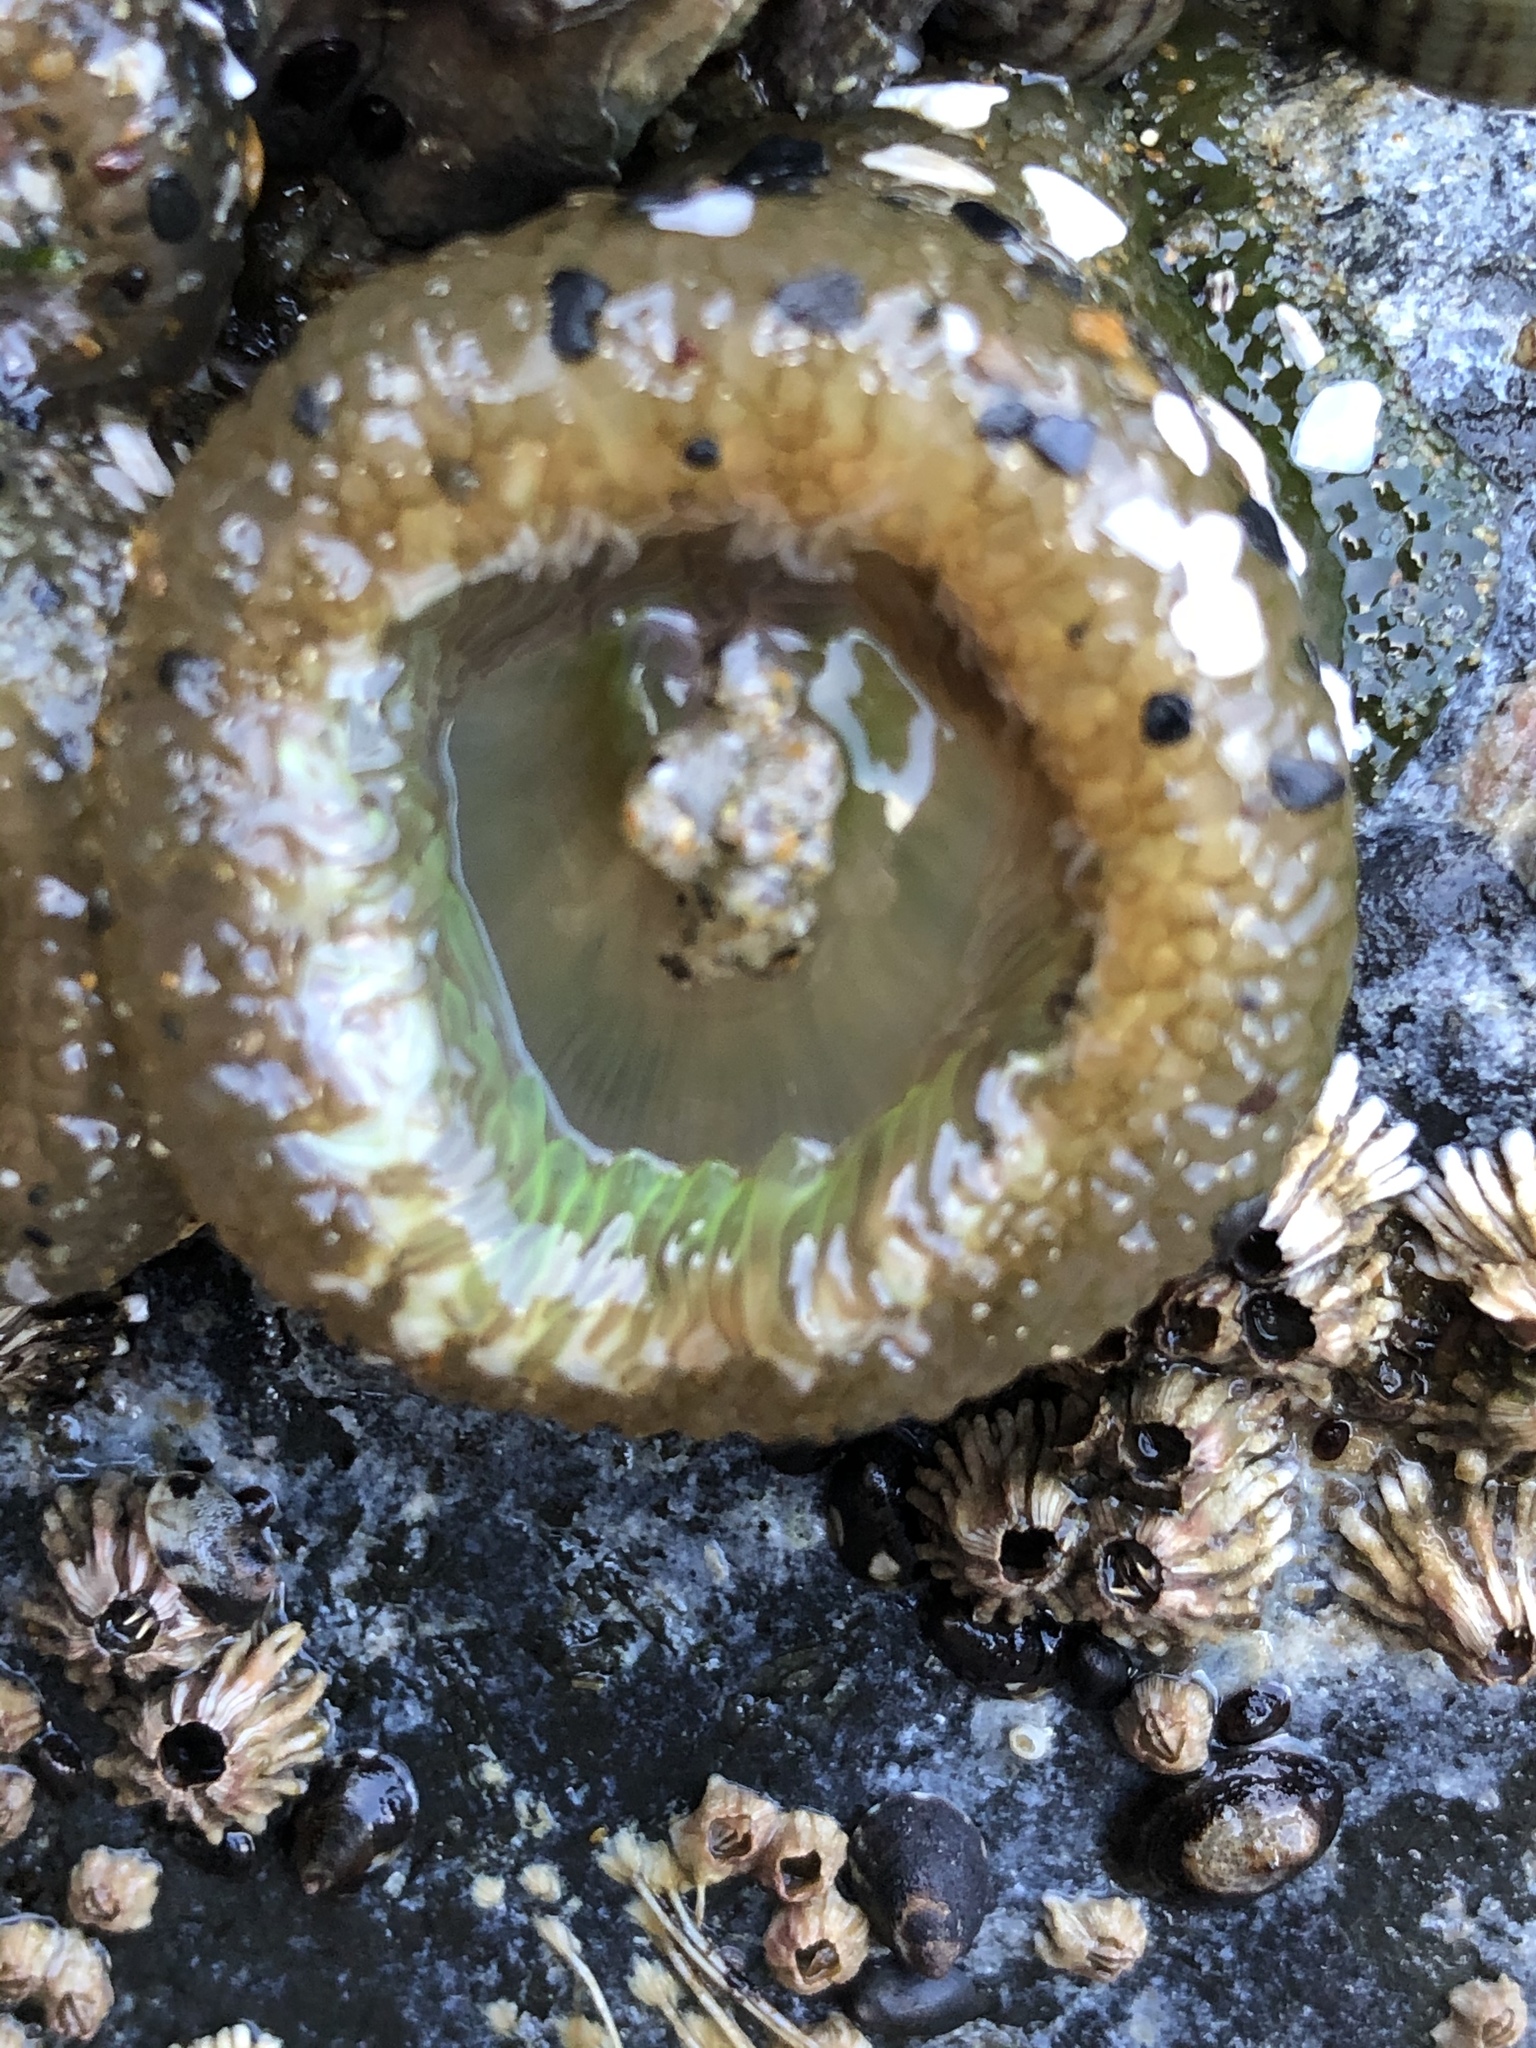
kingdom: Animalia
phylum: Cnidaria
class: Anthozoa
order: Actiniaria
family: Actiniidae
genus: Anthopleura
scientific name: Anthopleura xanthogrammica
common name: Giant green anemone
